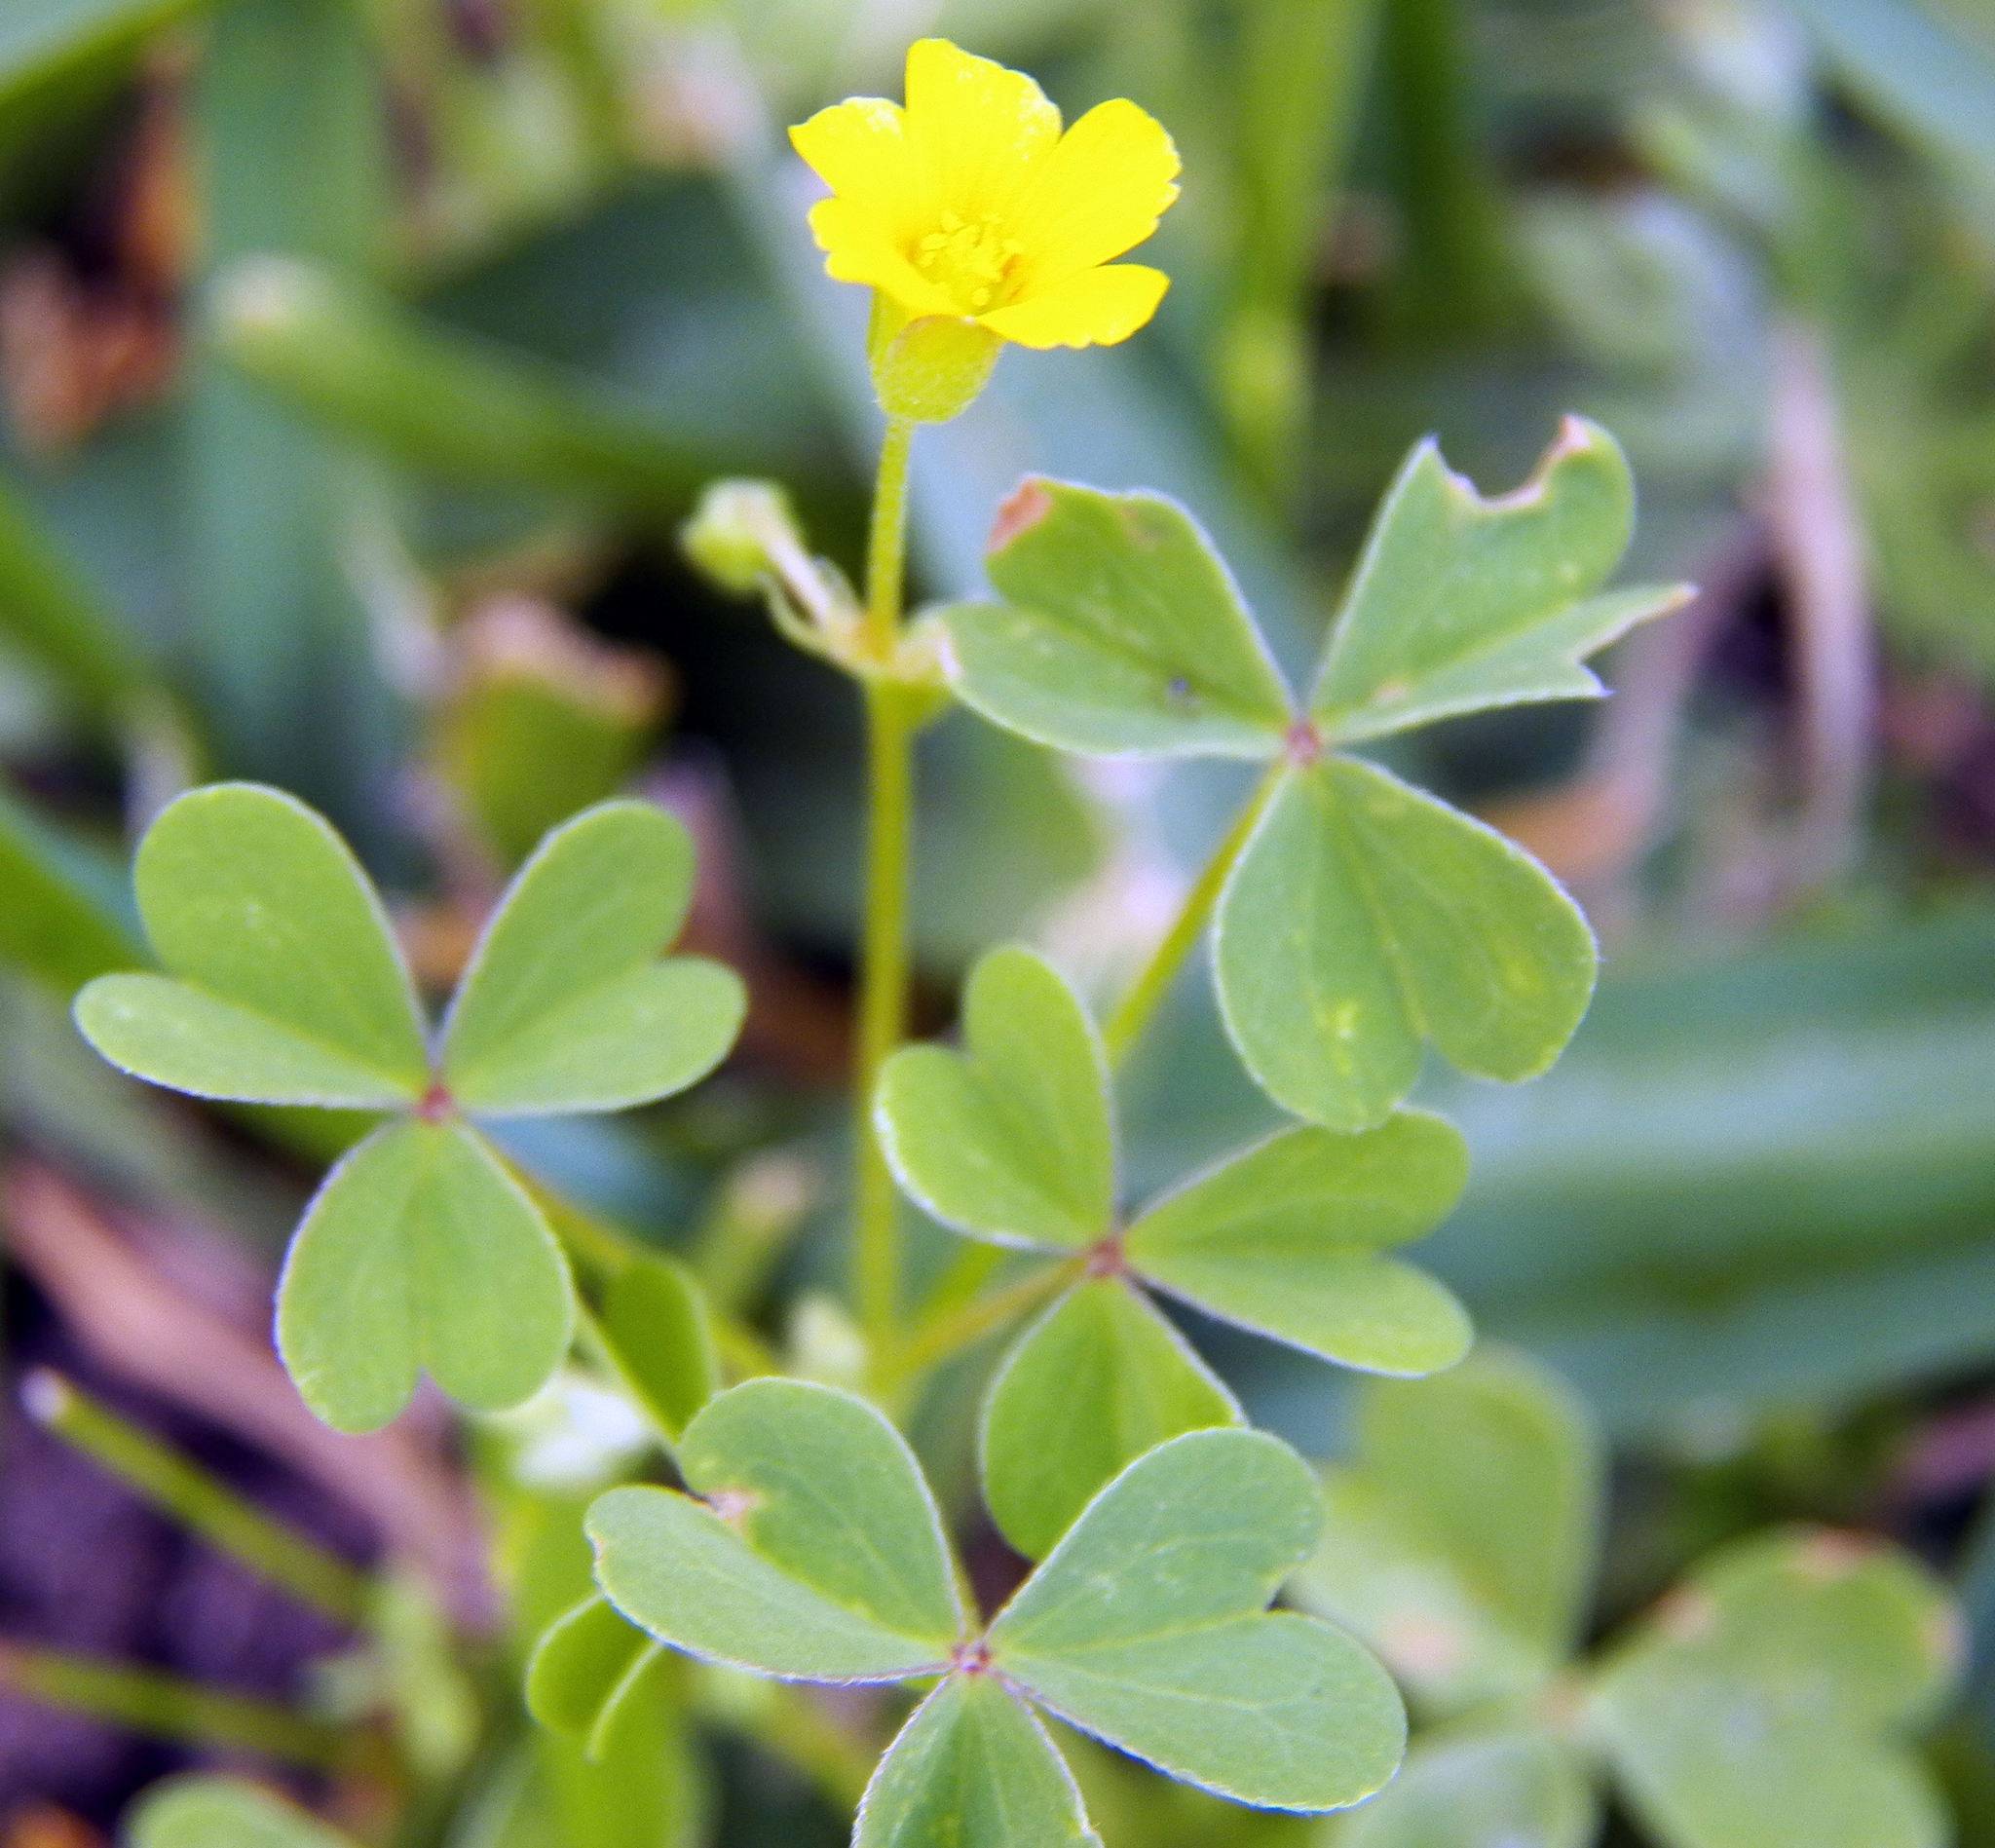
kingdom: Plantae
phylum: Tracheophyta
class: Magnoliopsida
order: Oxalidales
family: Oxalidaceae
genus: Oxalis
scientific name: Oxalis dillenii
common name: Sussex yellow-sorrel
